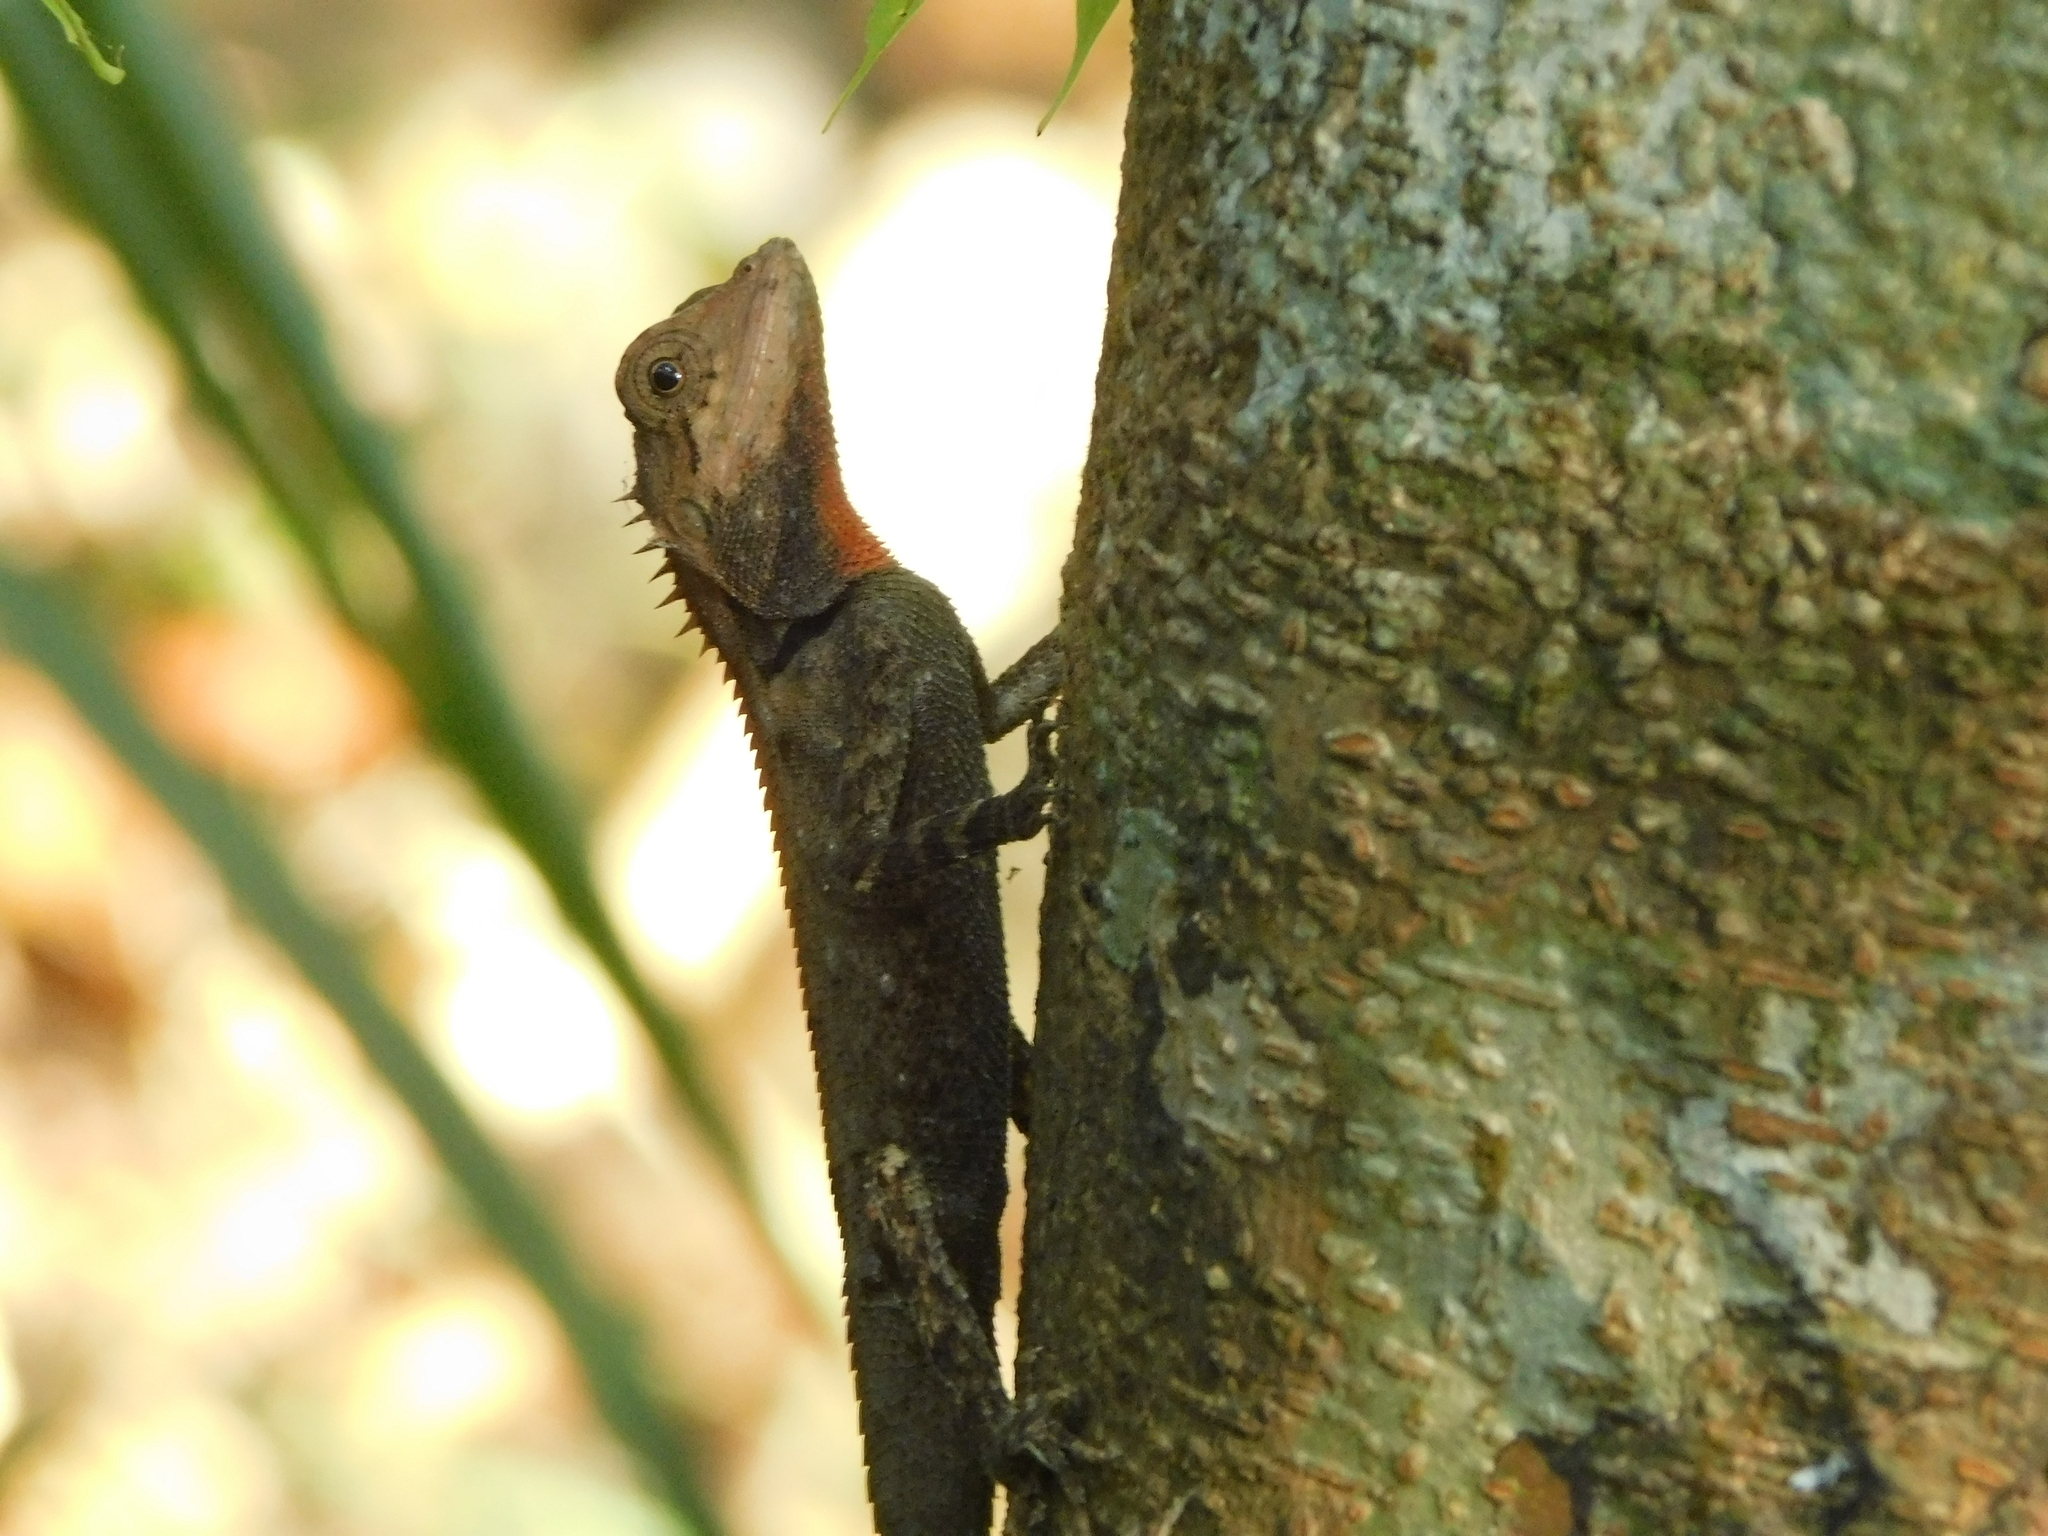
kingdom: Animalia
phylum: Chordata
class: Squamata
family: Agamidae
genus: Monilesaurus
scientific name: Monilesaurus rouxii
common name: Roux's forest lizard
